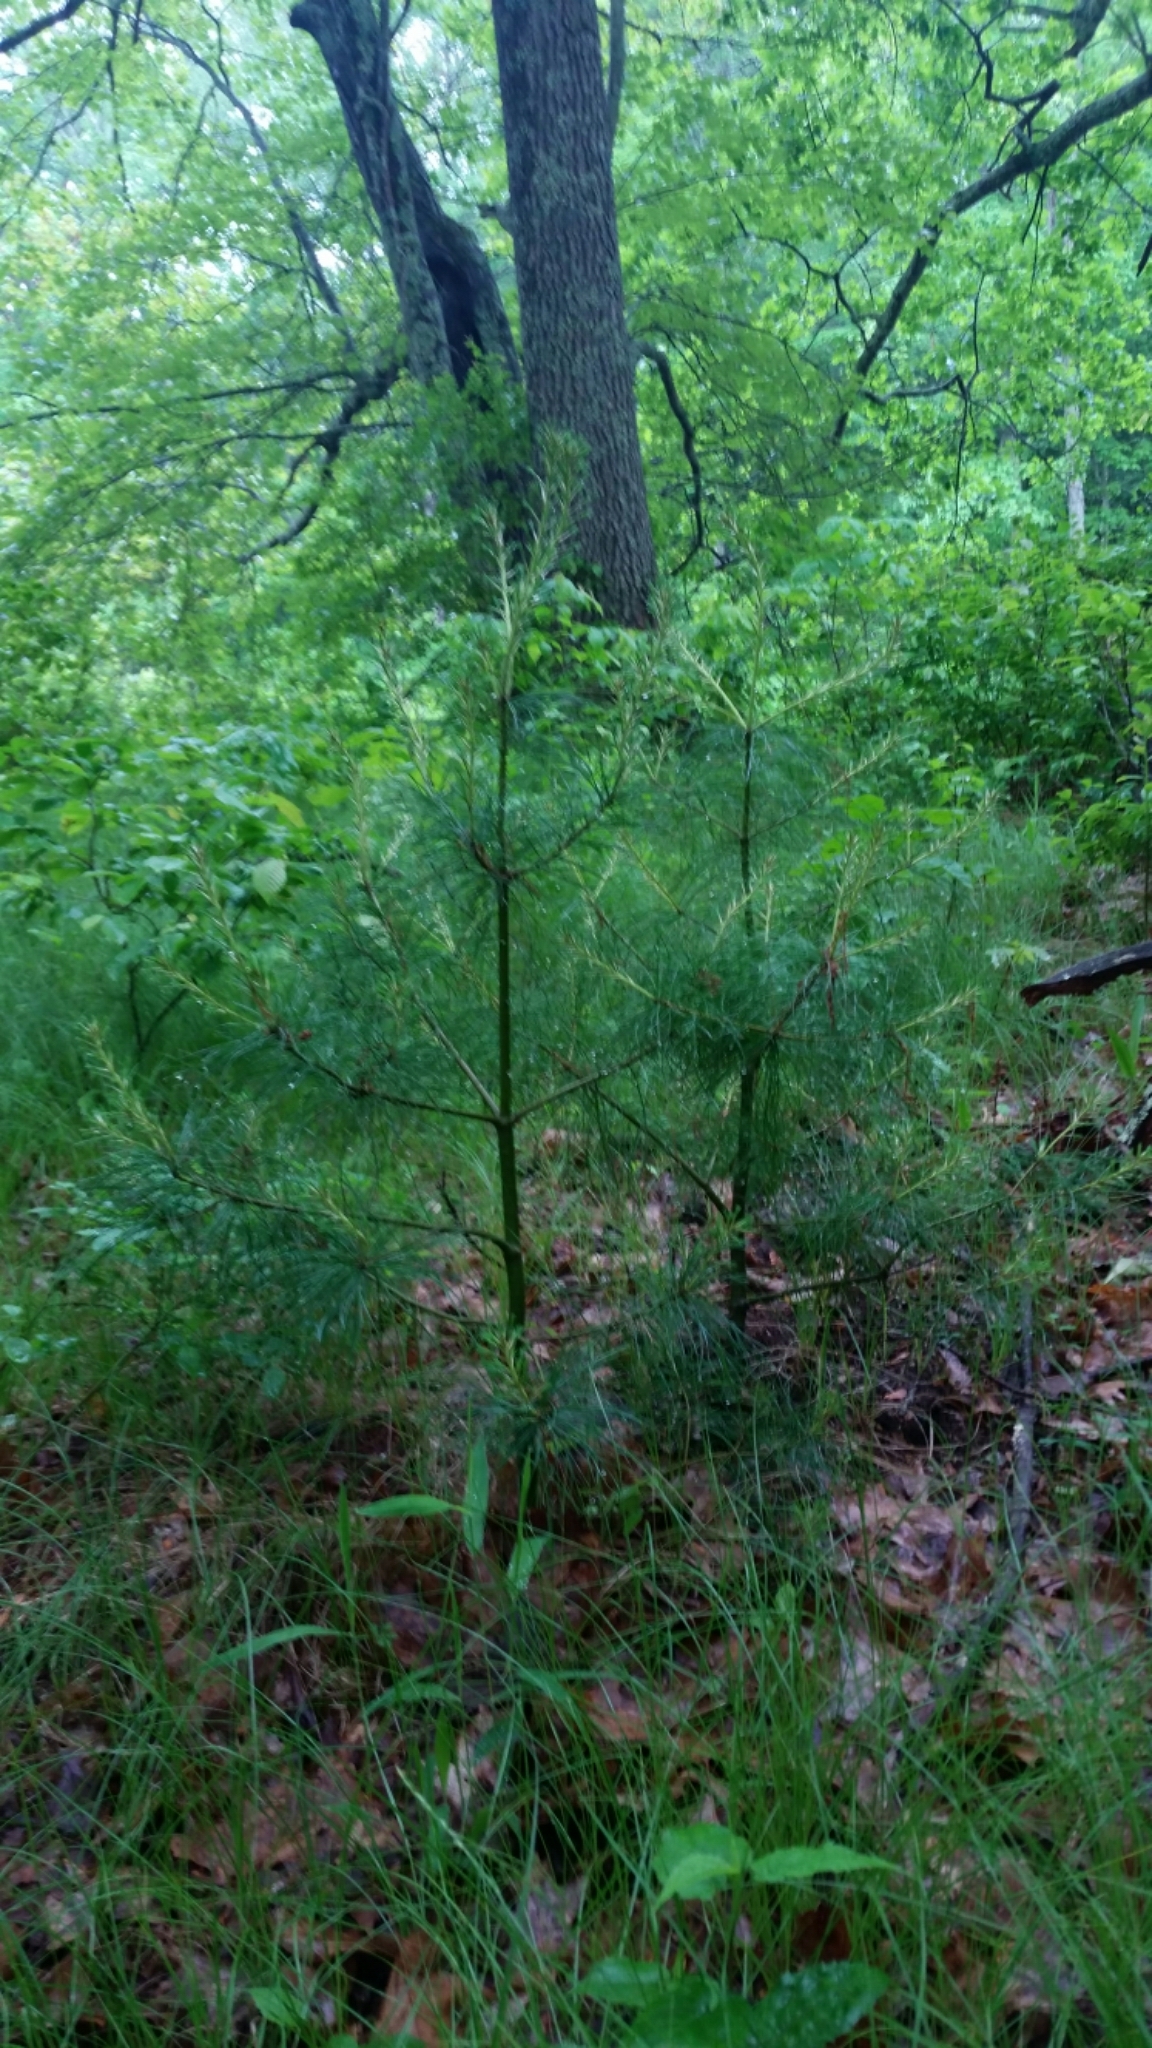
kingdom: Plantae
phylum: Tracheophyta
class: Pinopsida
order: Pinales
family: Pinaceae
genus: Pinus
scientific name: Pinus strobus
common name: Weymouth pine
